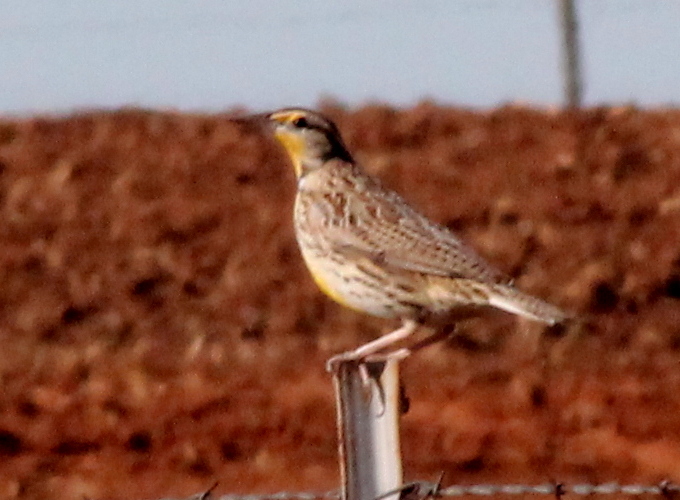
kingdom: Animalia
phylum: Chordata
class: Aves
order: Passeriformes
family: Icteridae
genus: Sturnella
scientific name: Sturnella neglecta
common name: Western meadowlark
